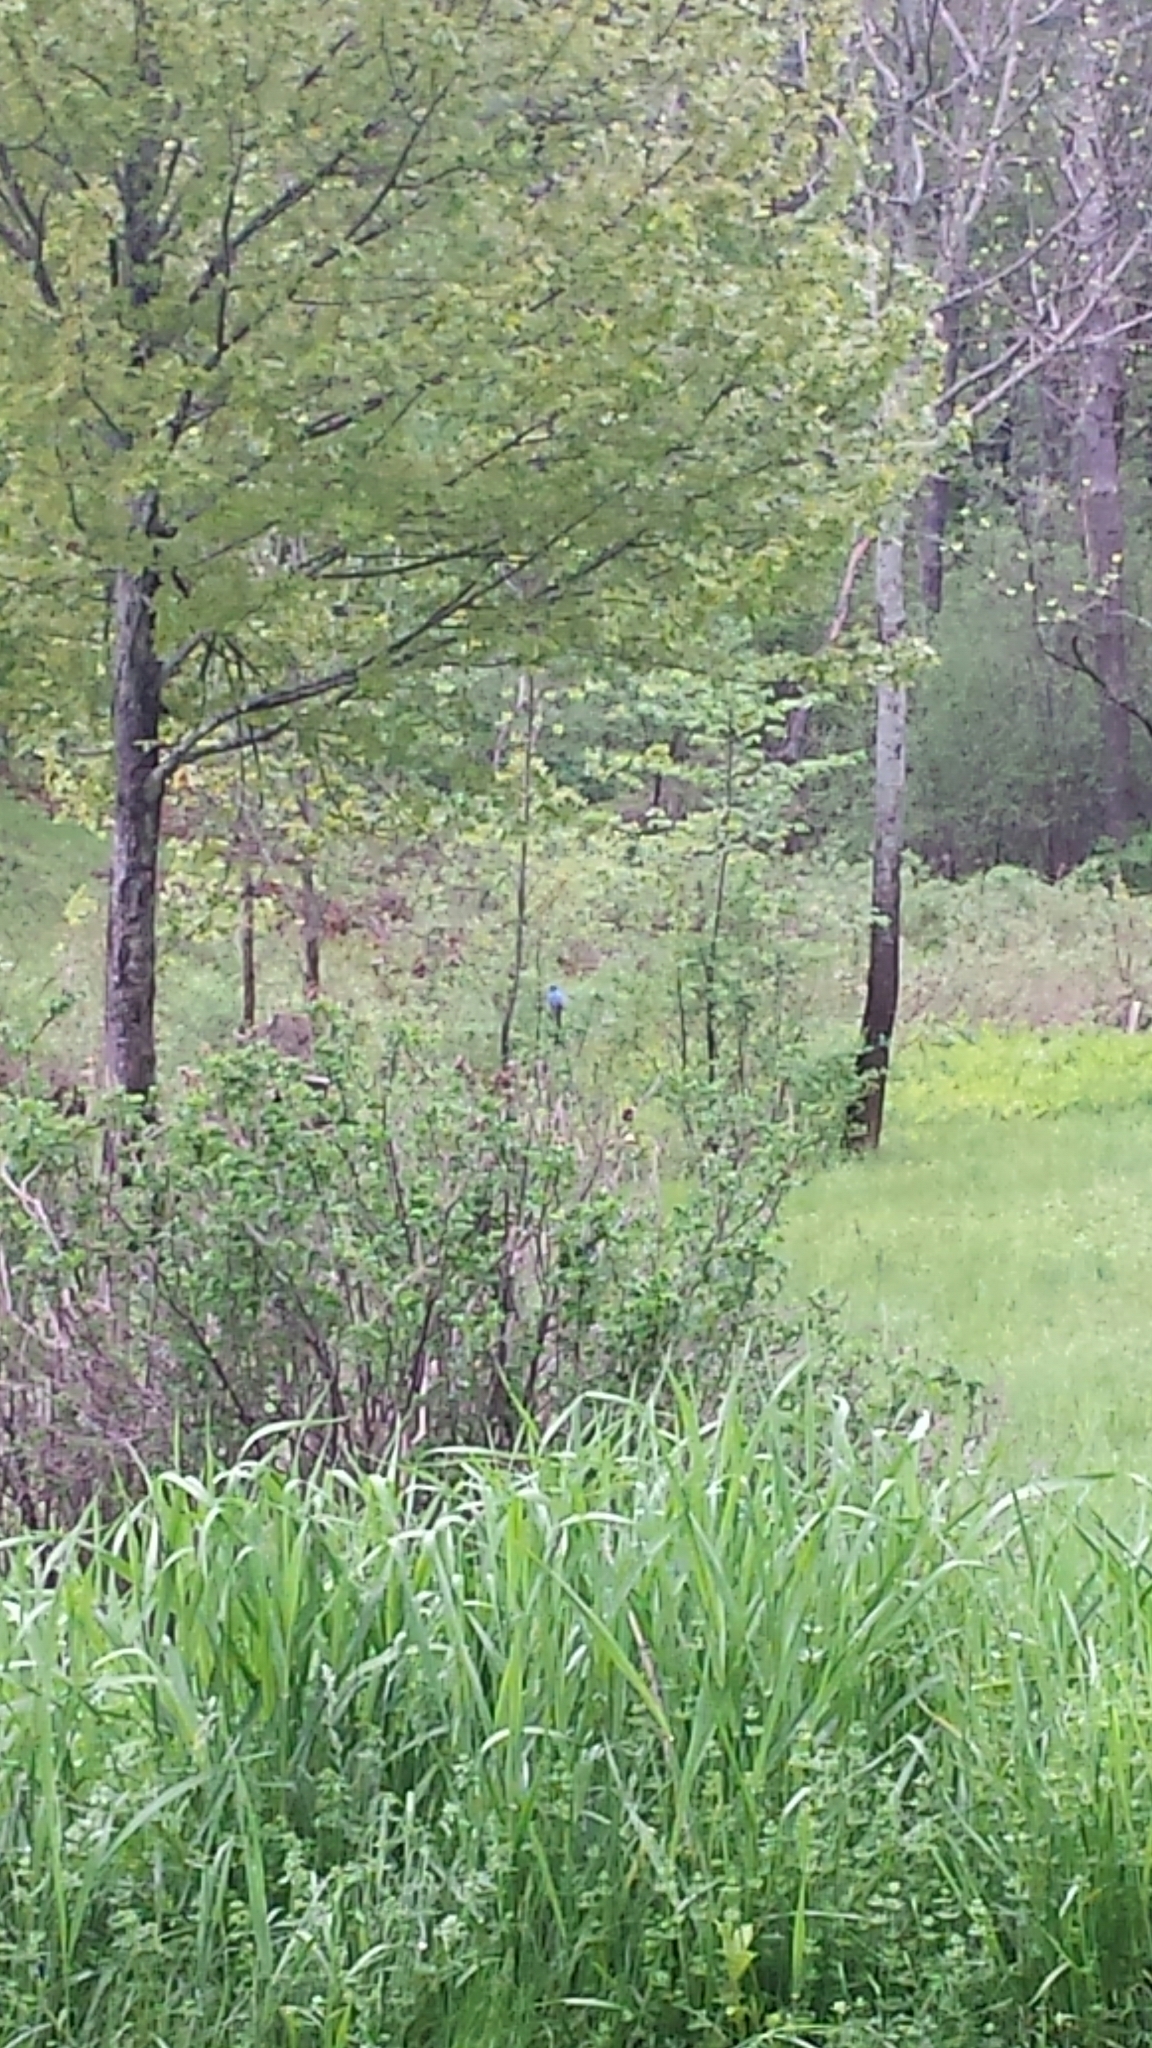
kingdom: Animalia
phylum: Chordata
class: Aves
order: Passeriformes
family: Cardinalidae
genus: Passerina
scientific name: Passerina cyanea
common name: Indigo bunting
